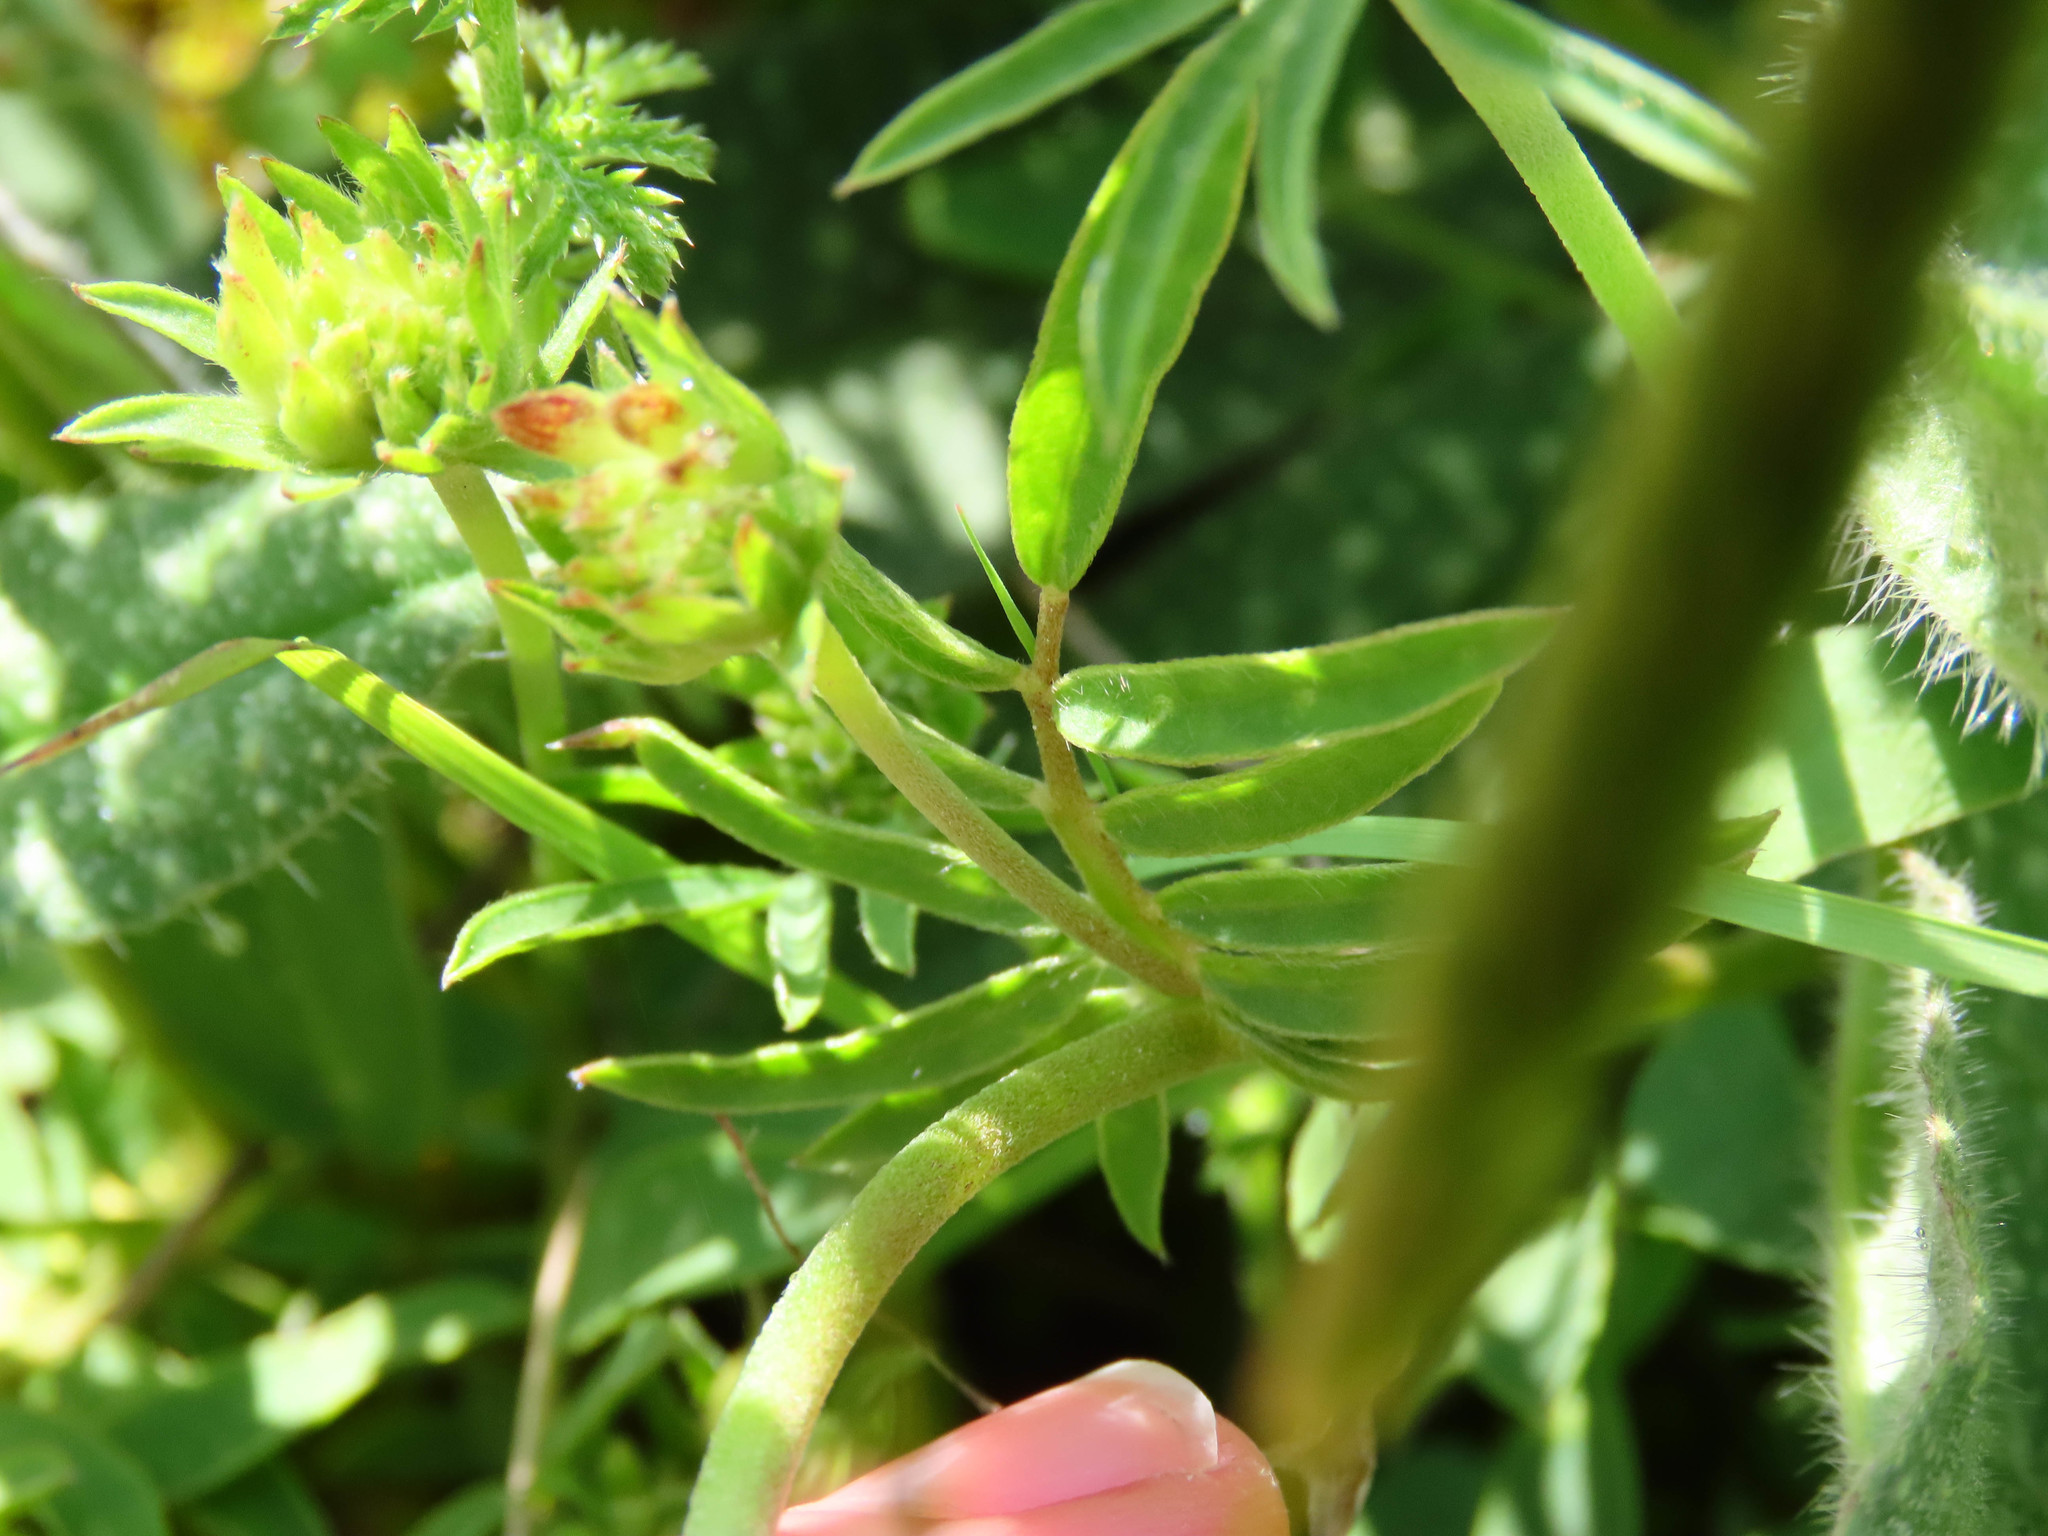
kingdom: Plantae
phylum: Tracheophyta
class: Magnoliopsida
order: Fabales
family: Fabaceae
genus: Anthyllis
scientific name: Anthyllis vulneraria
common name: Kidney vetch
